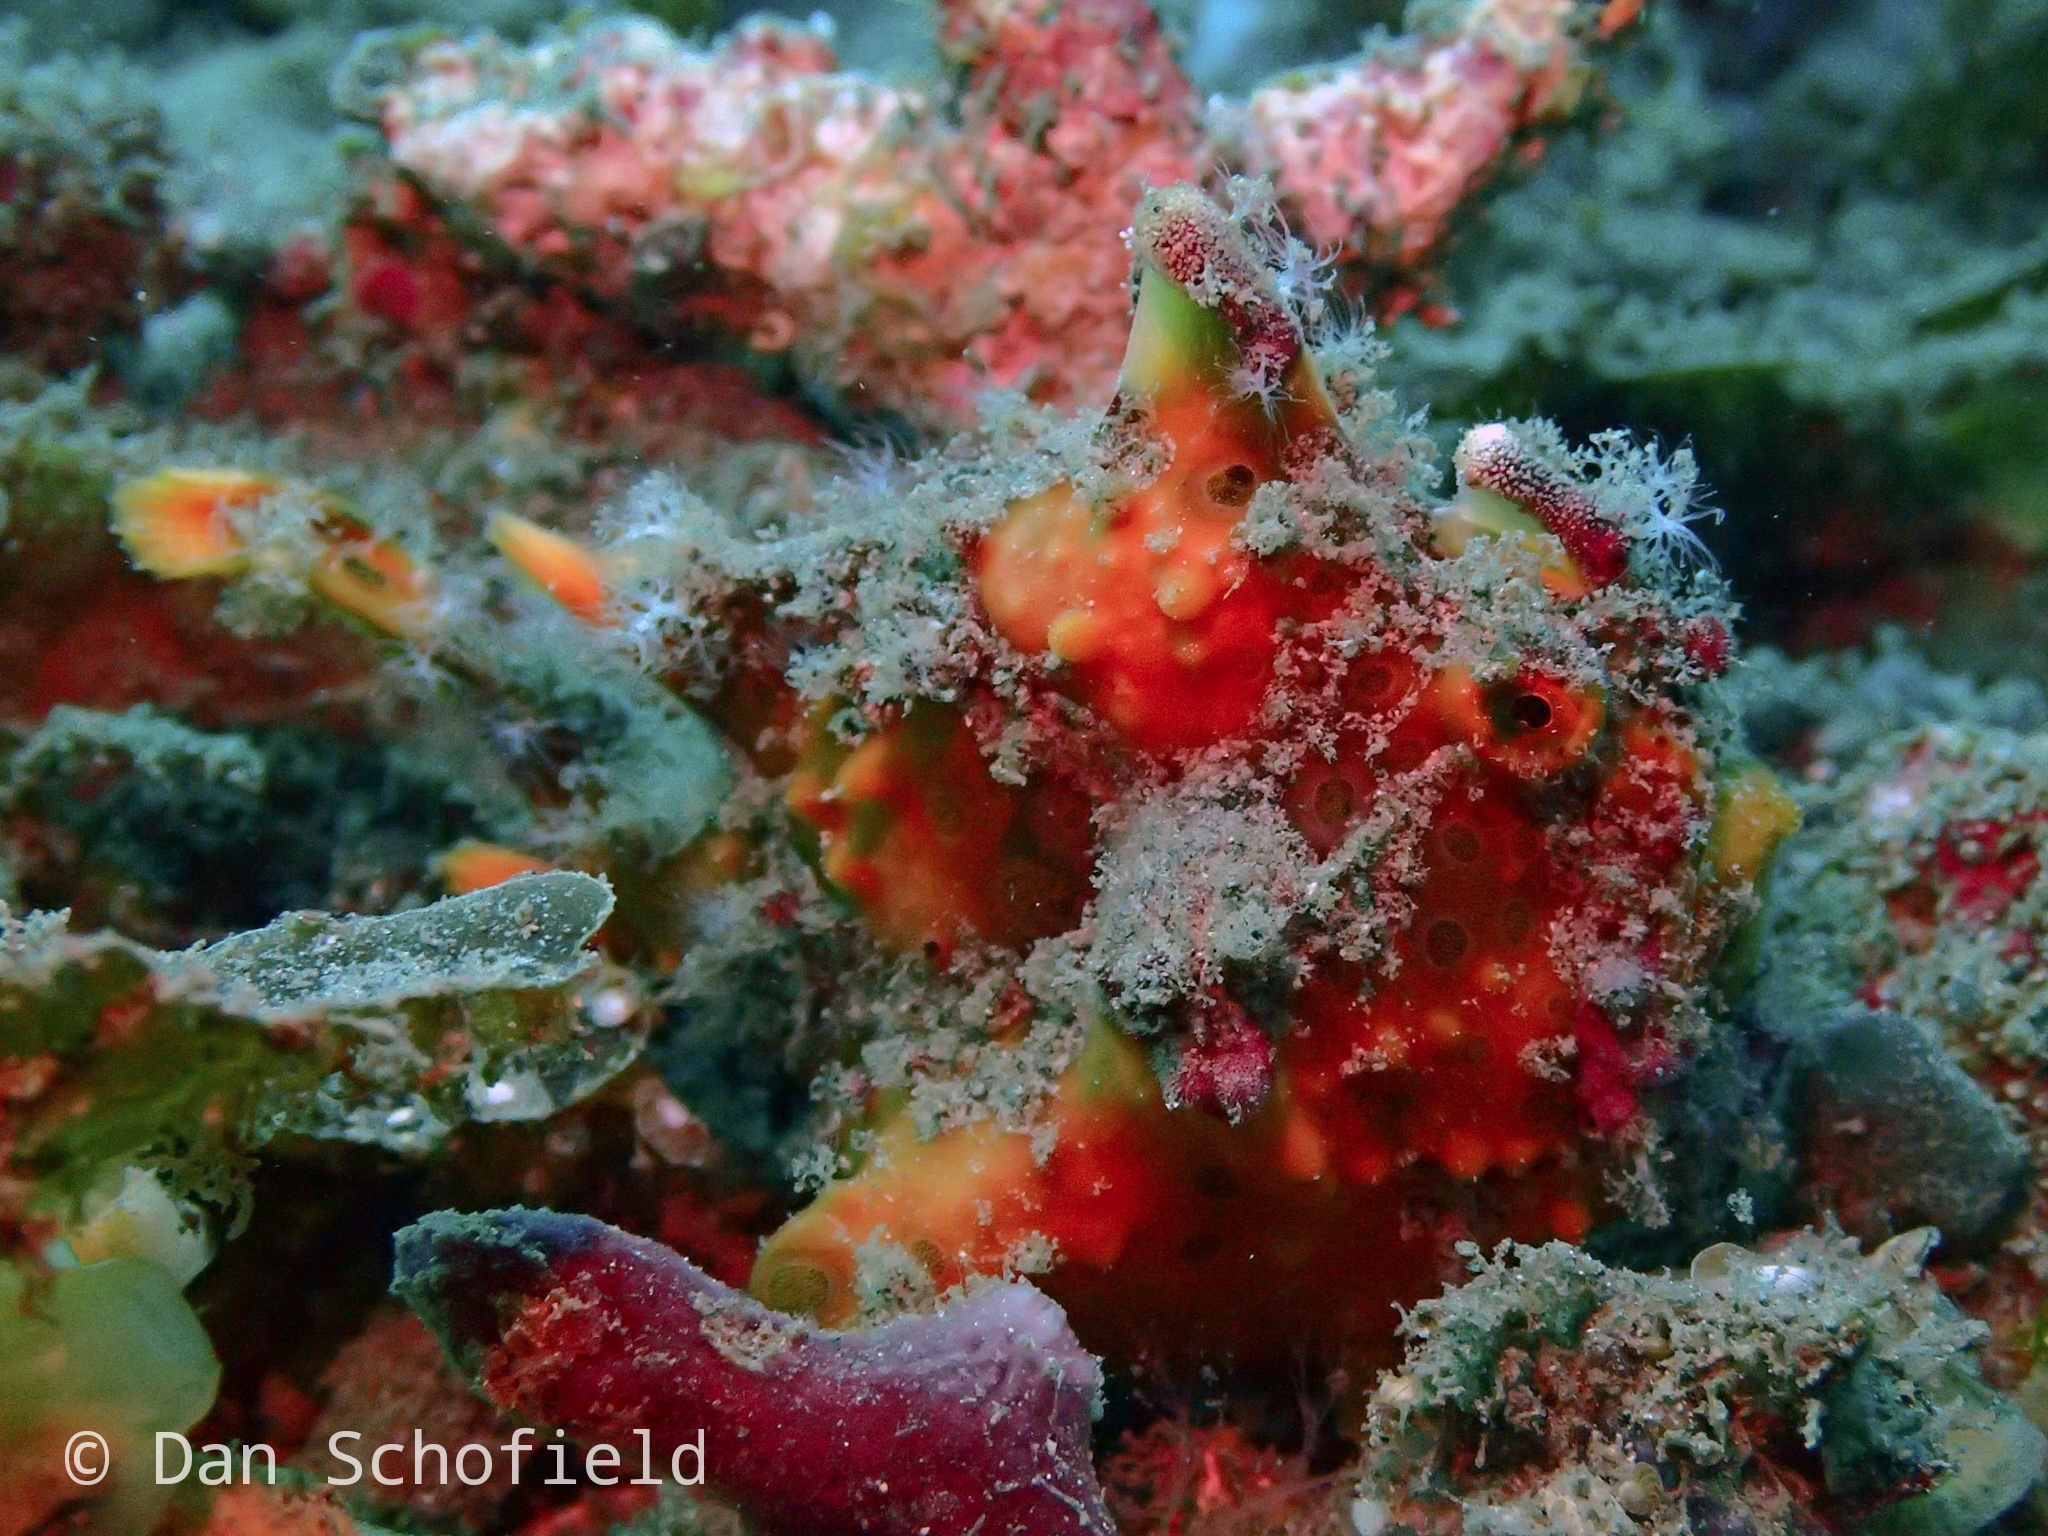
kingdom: Animalia
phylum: Chordata
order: Lophiiformes
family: Antennariidae
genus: Antennarius
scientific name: Antennarius maculatus
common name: Warty frogfish
